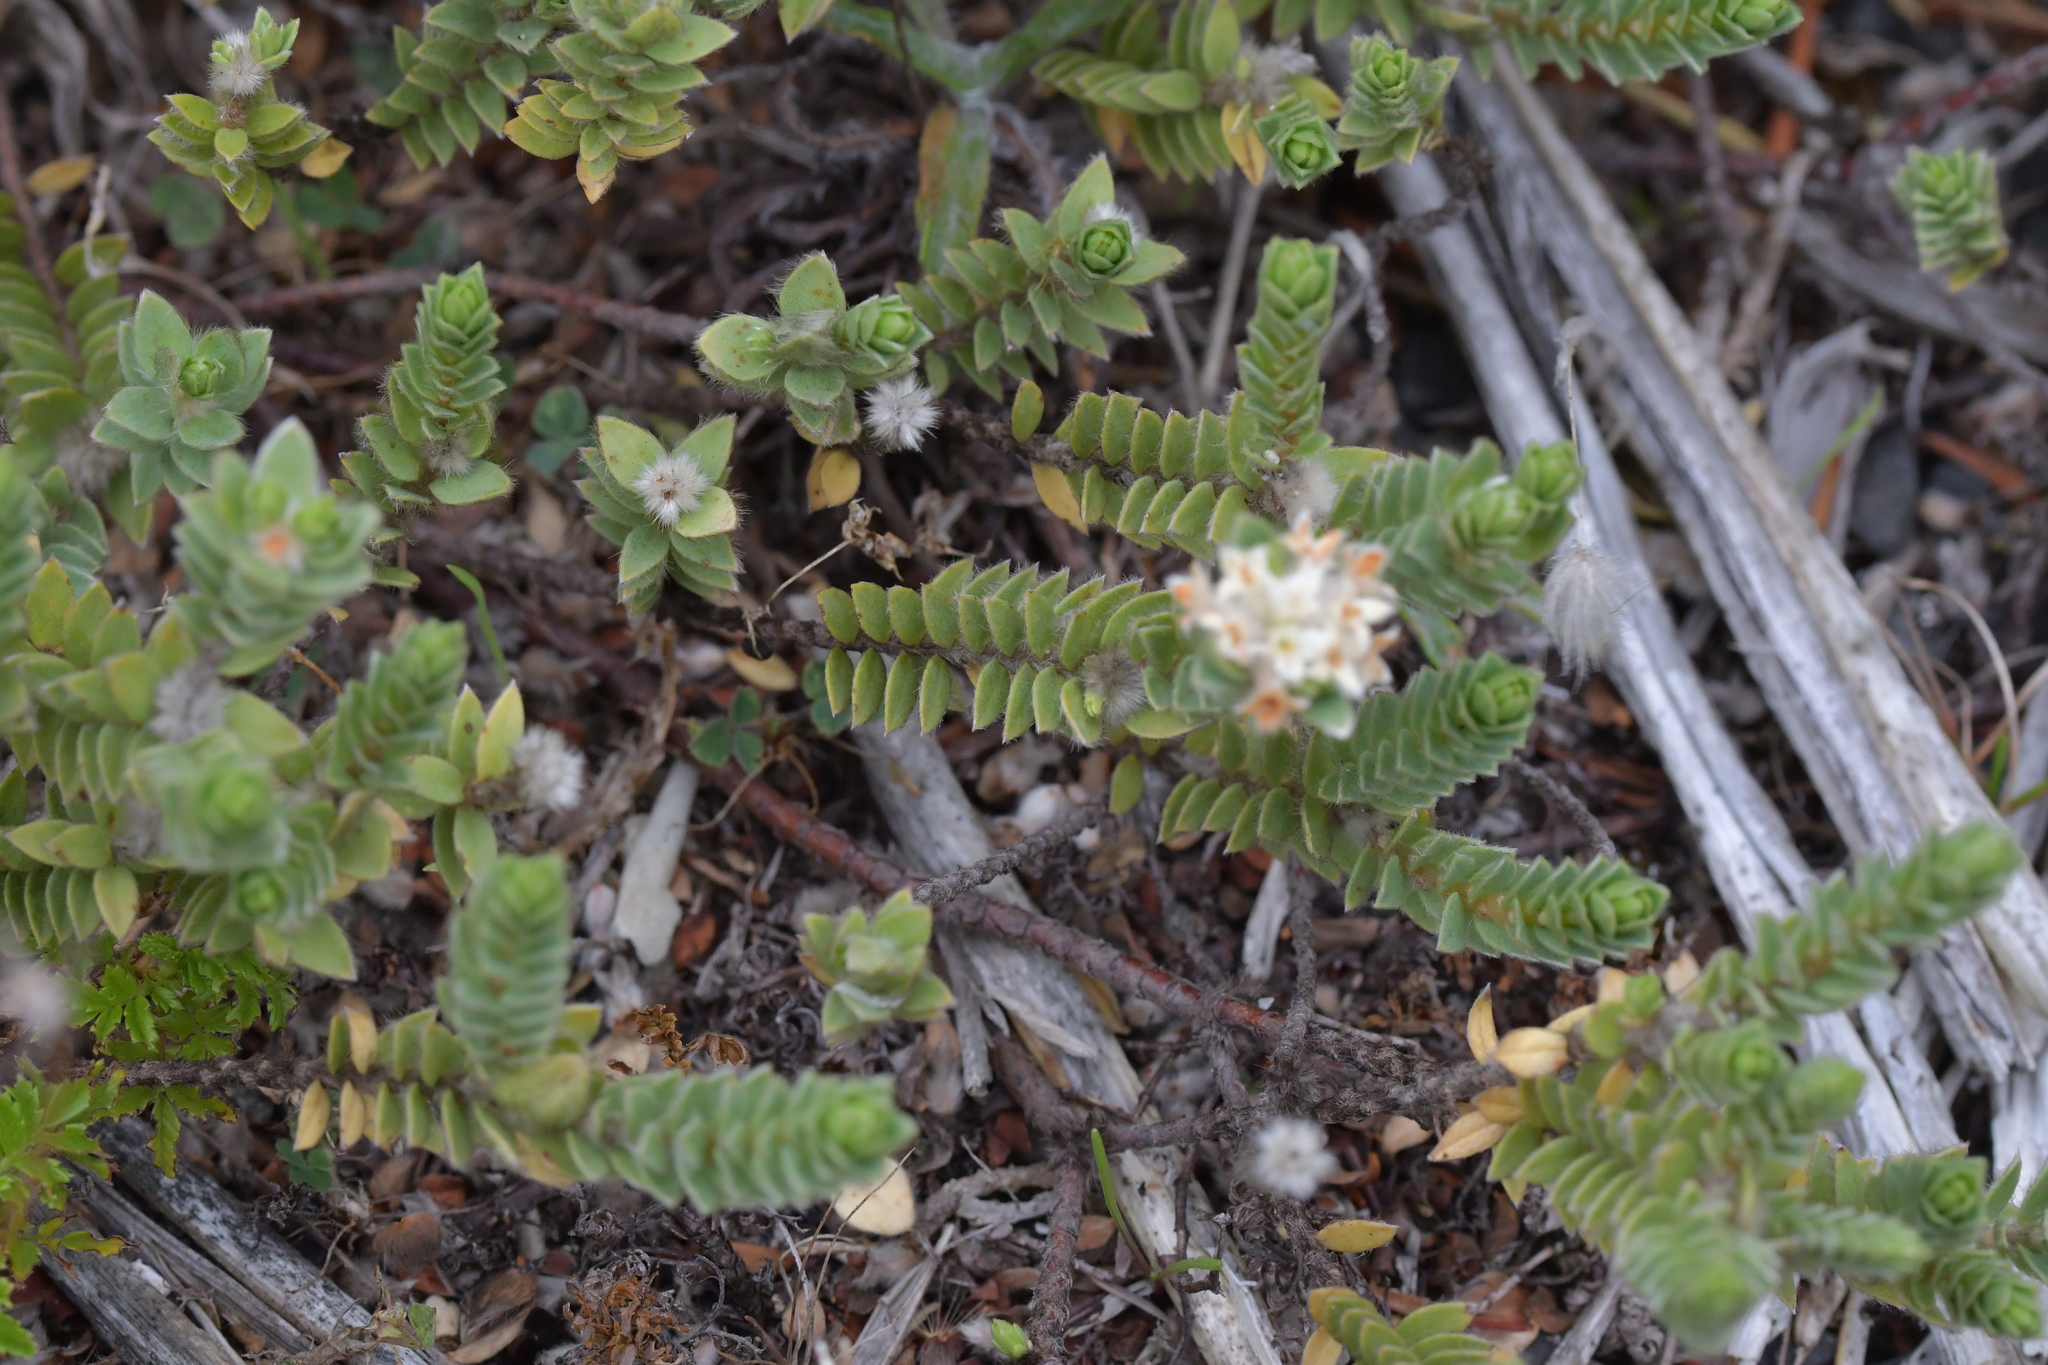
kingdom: Plantae
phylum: Tracheophyta
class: Magnoliopsida
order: Malvales
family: Thymelaeaceae
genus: Pimelea
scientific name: Pimelea villosa
